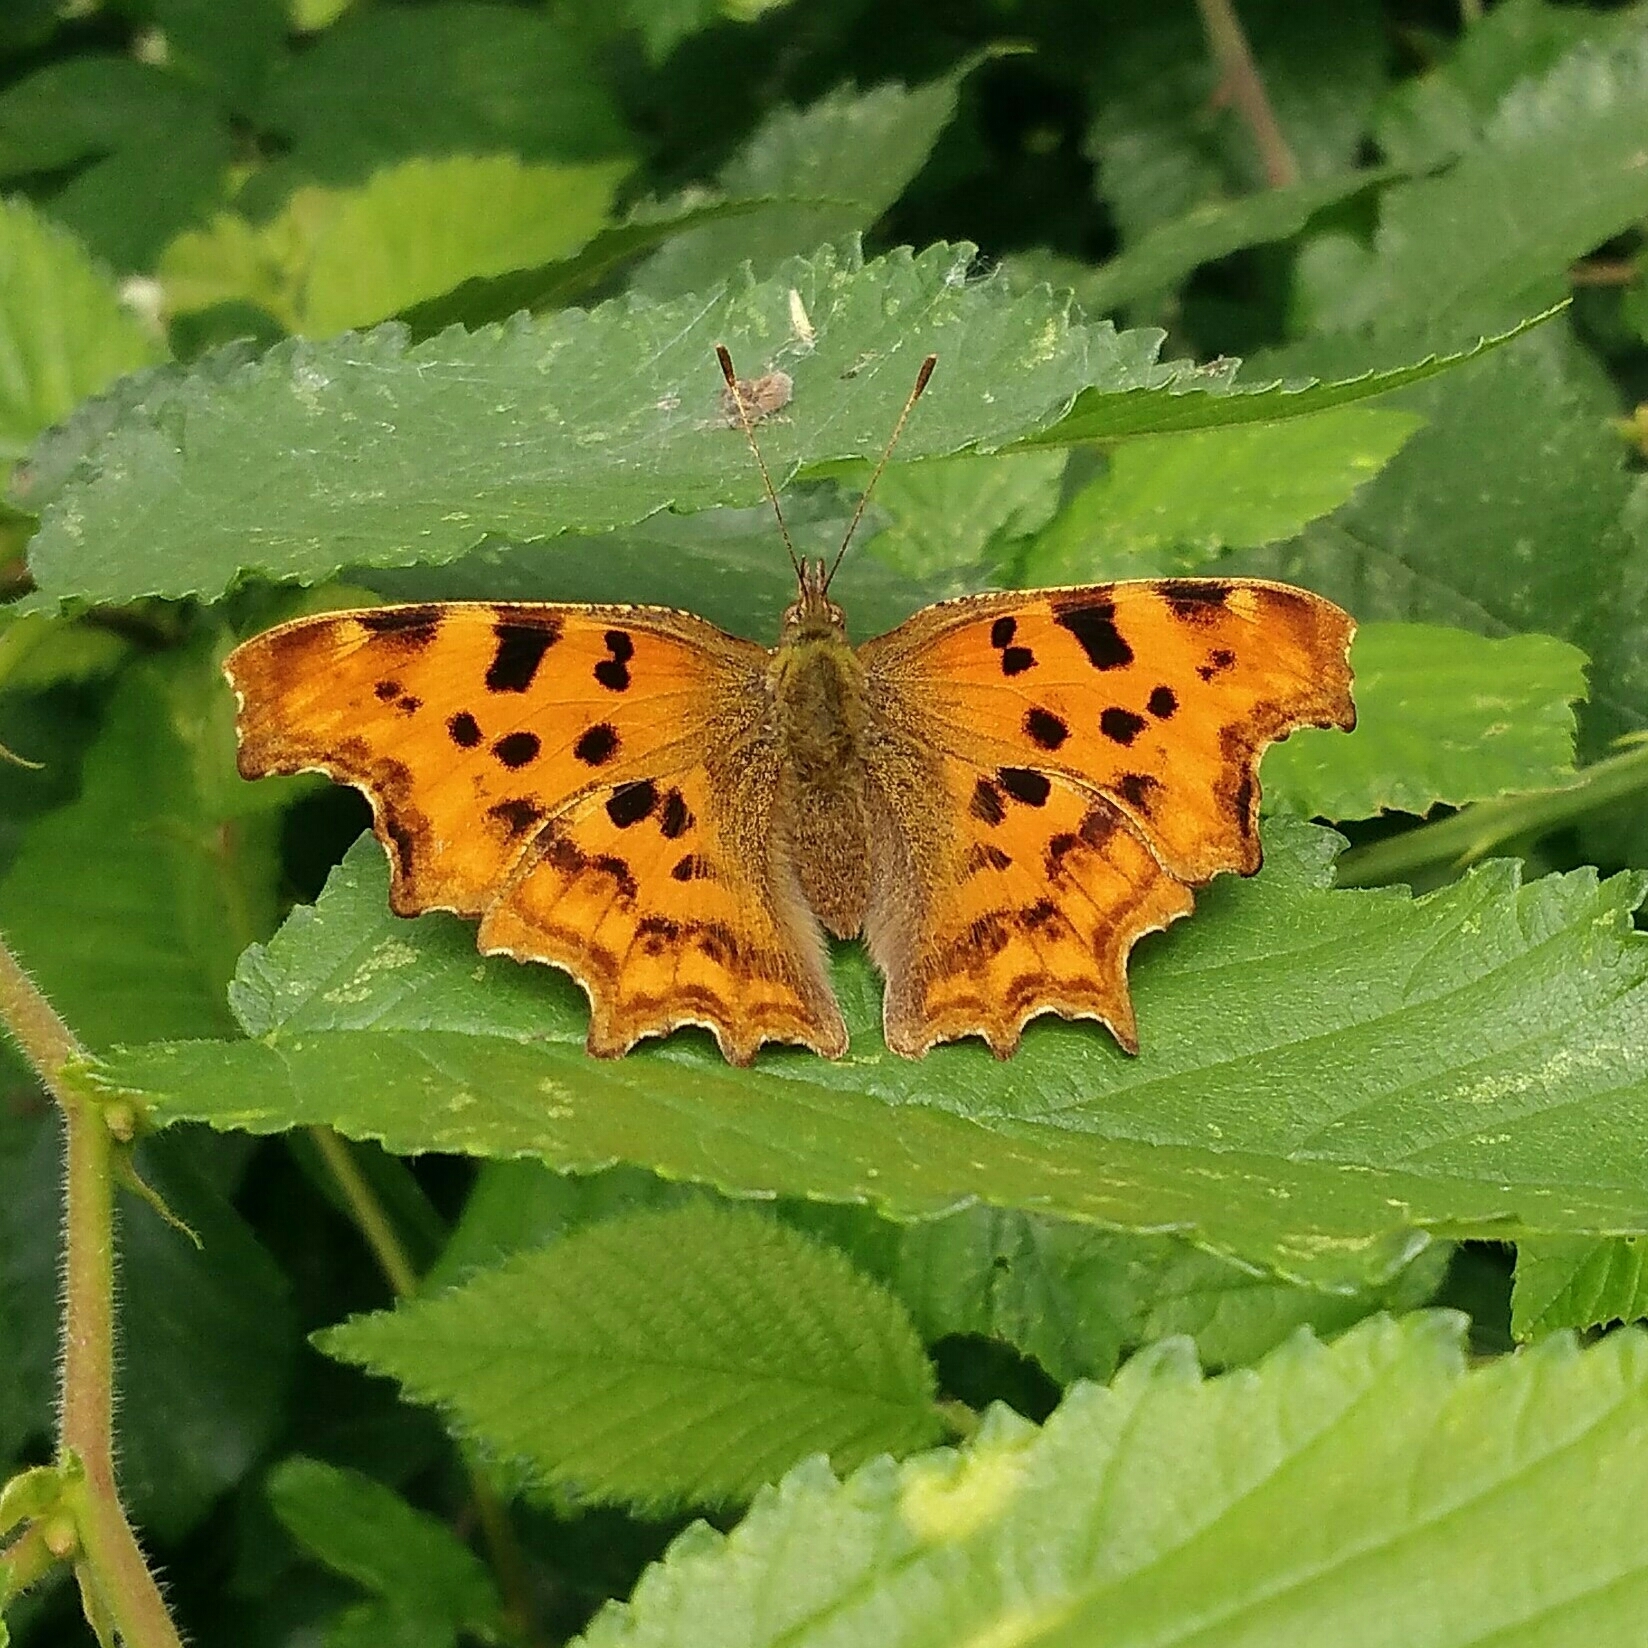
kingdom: Animalia
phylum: Arthropoda
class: Insecta
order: Lepidoptera
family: Nymphalidae
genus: Polygonia
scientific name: Polygonia c-album
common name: Comma
